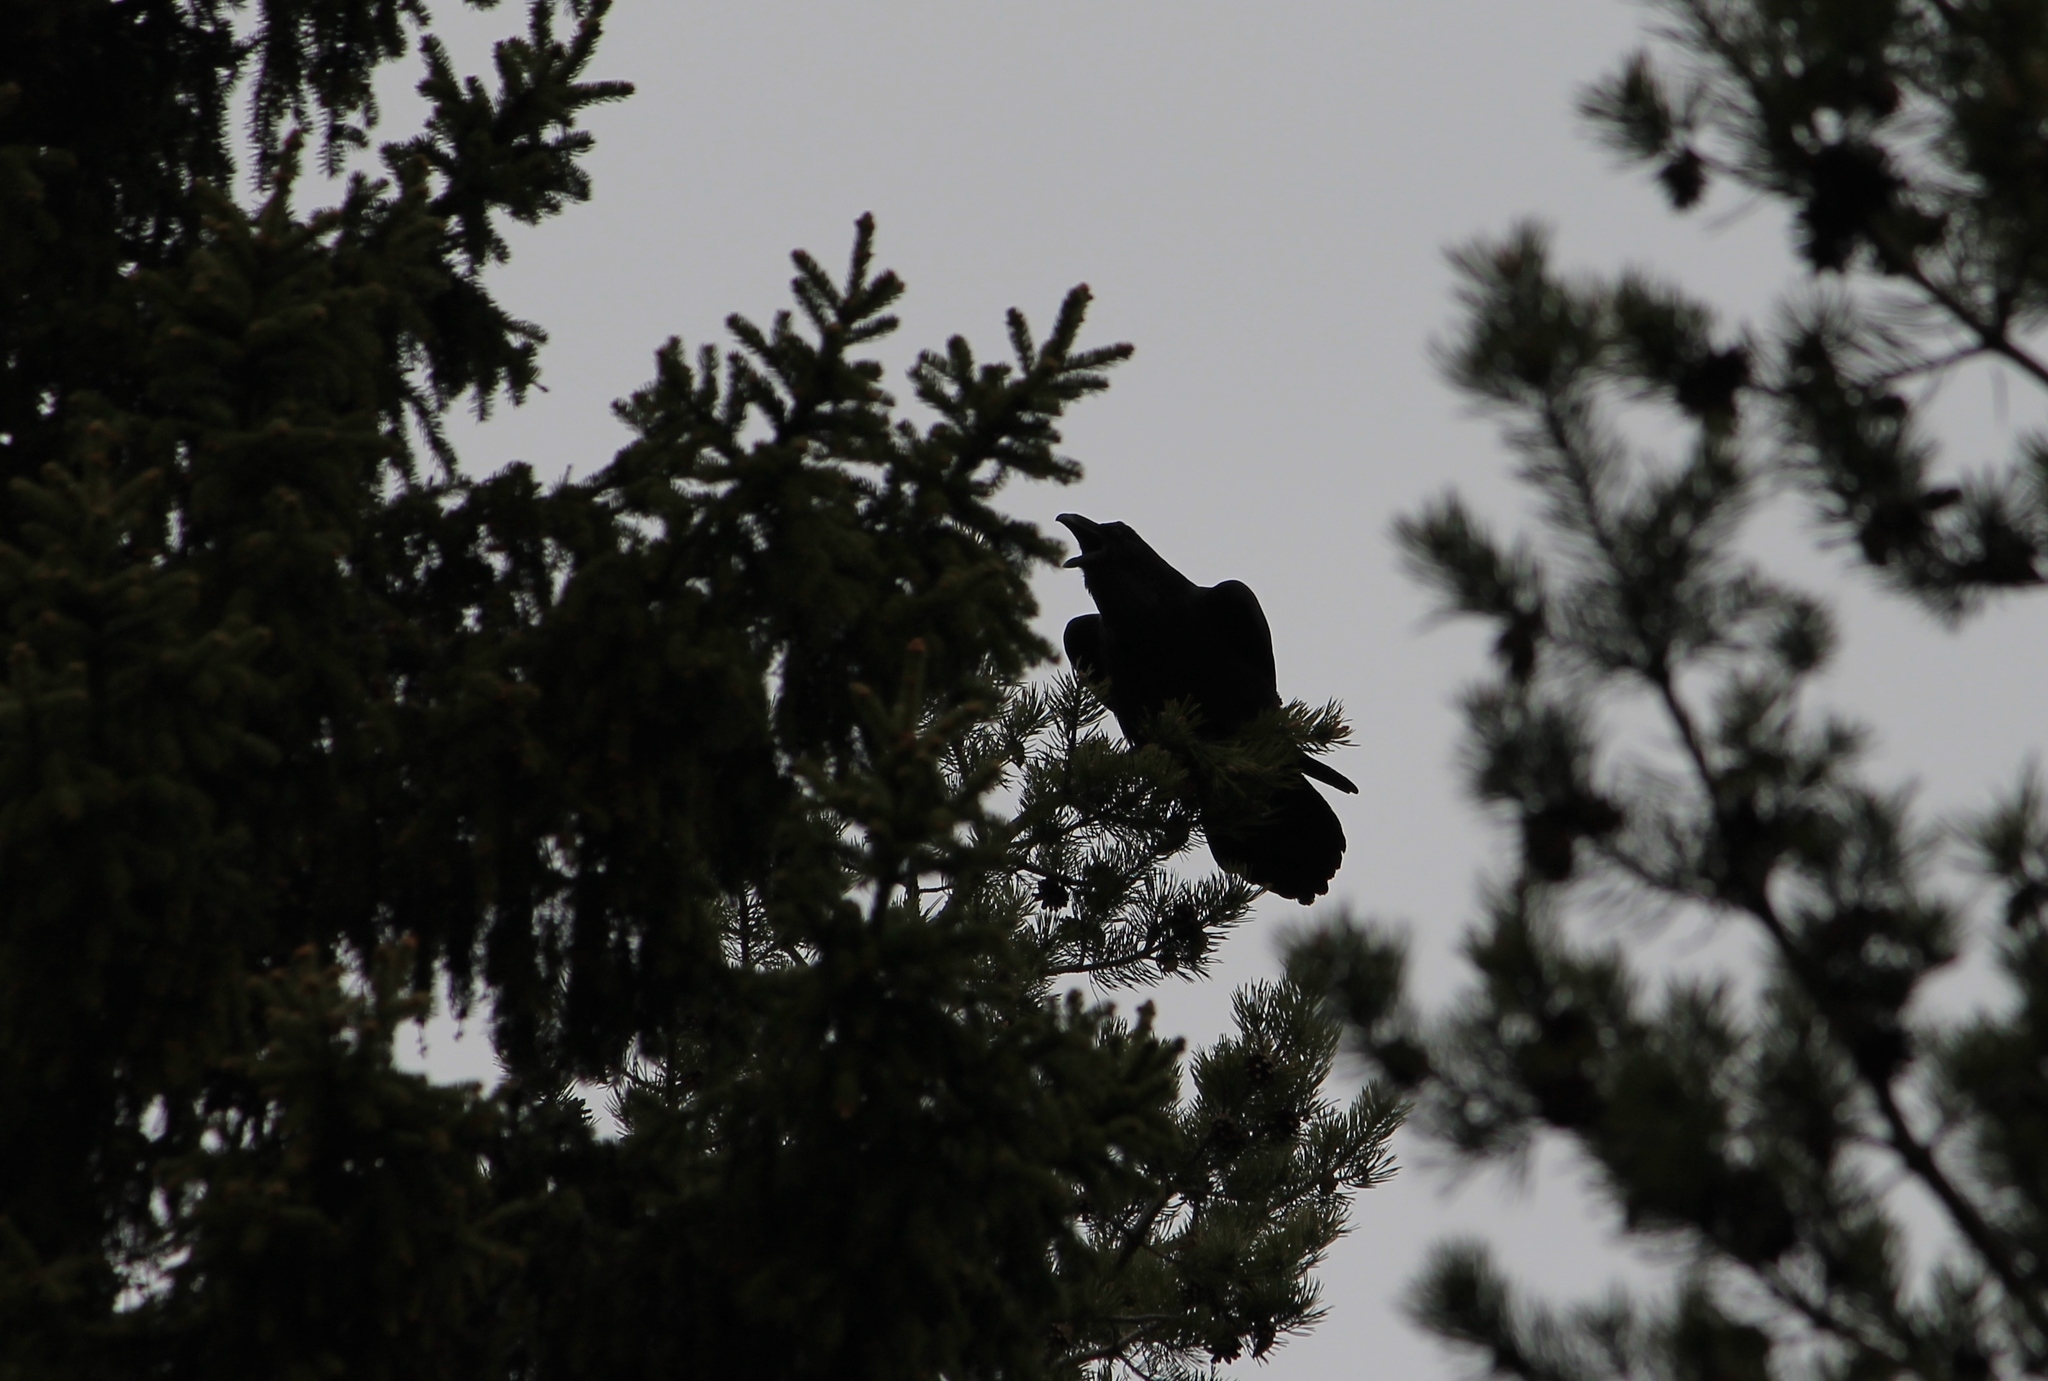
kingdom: Animalia
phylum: Chordata
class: Aves
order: Passeriformes
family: Corvidae
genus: Corvus
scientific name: Corvus corax
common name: Common raven
